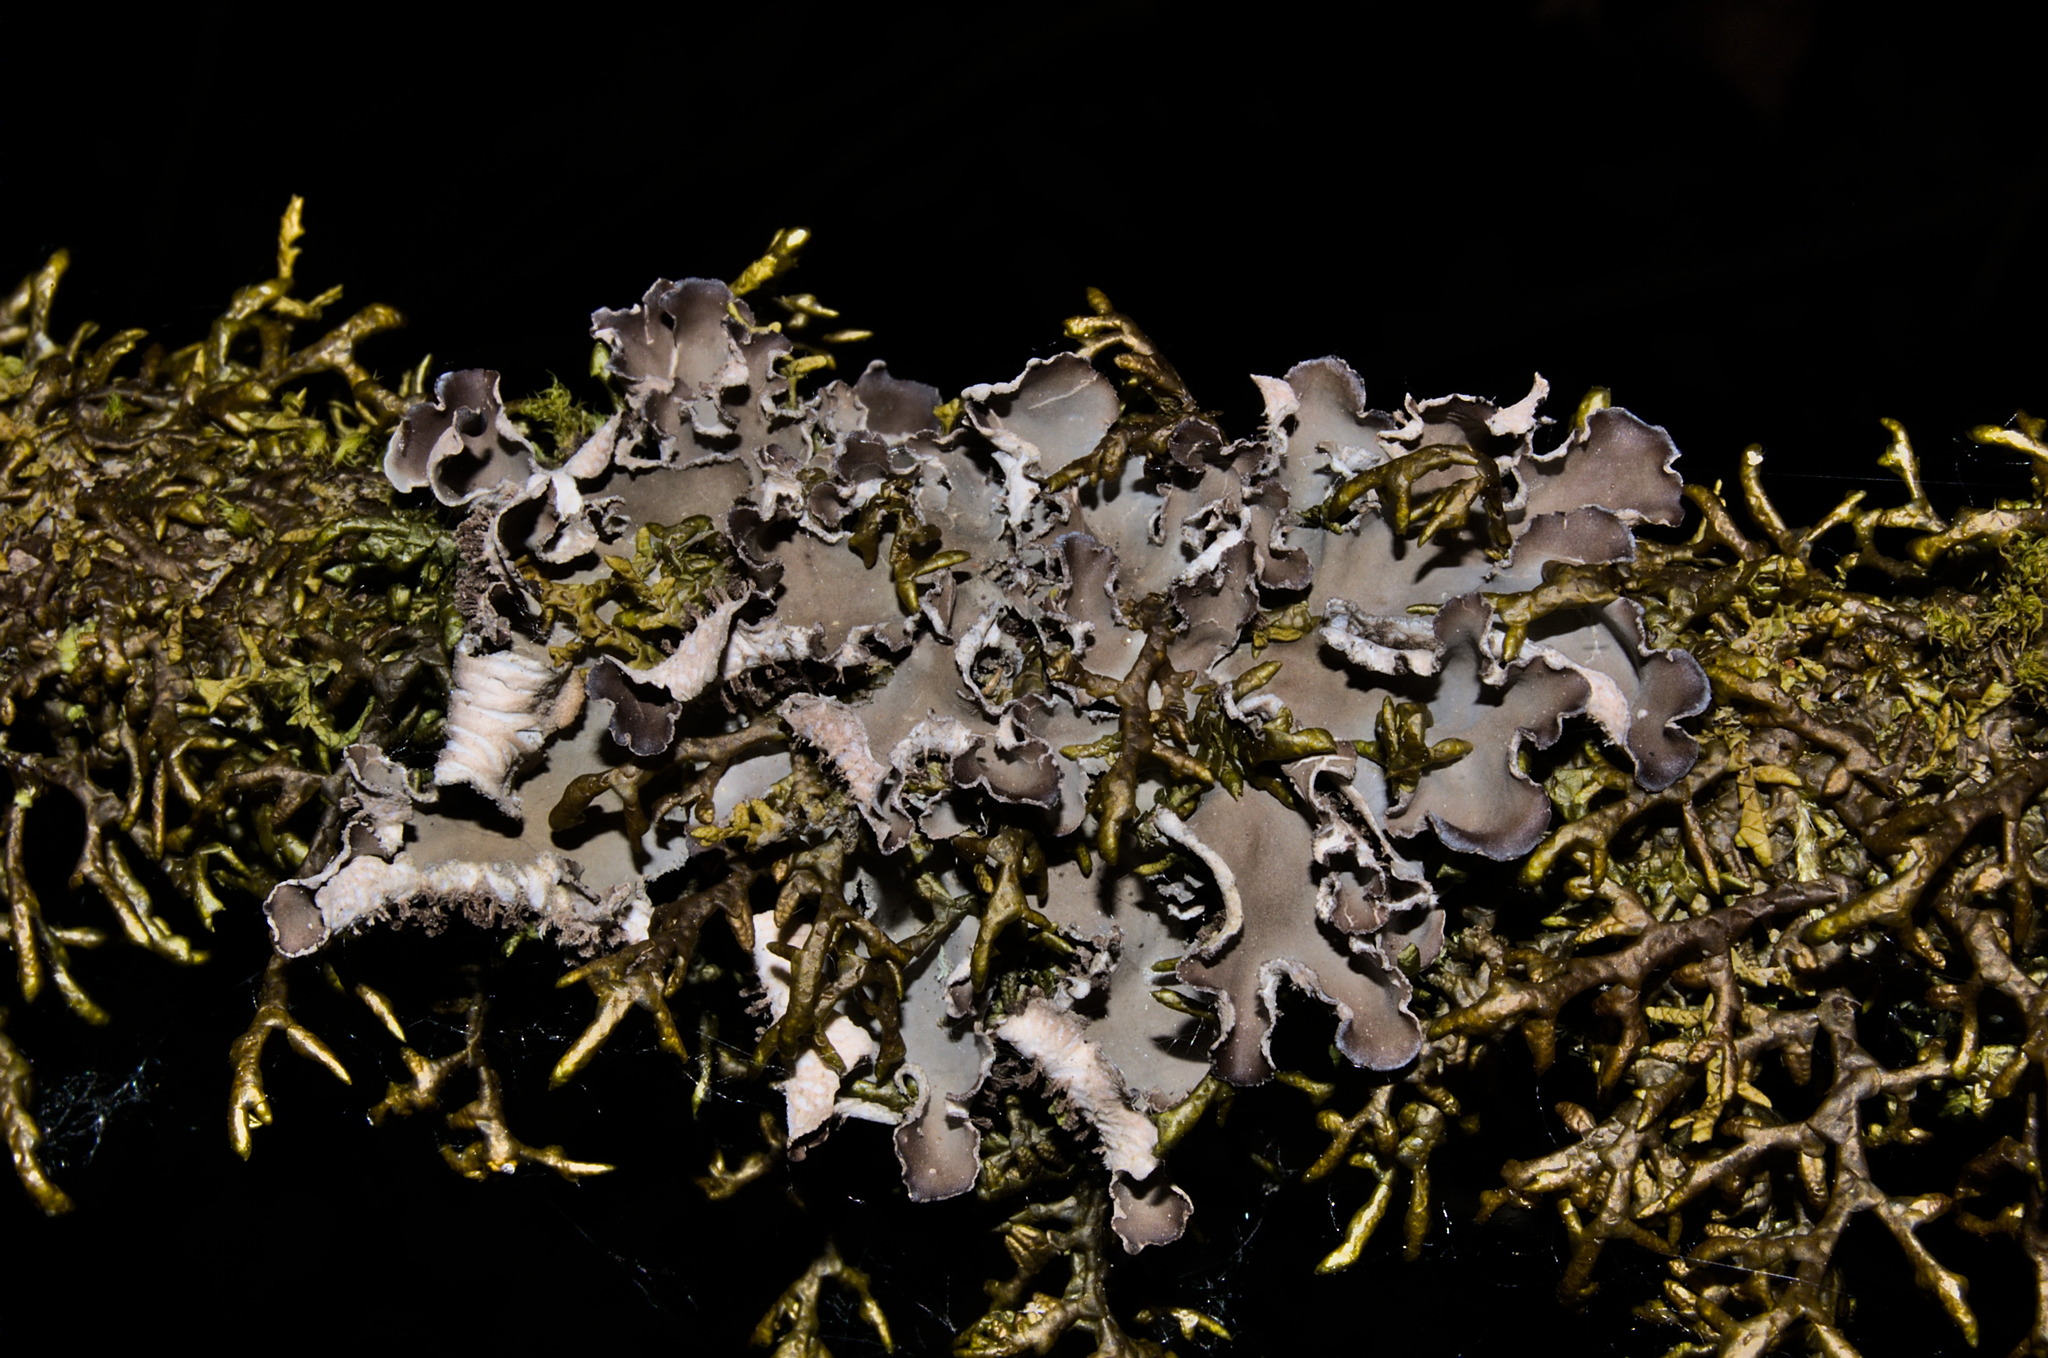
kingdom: Fungi
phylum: Ascomycota
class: Lecanoromycetes
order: Peltigerales
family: Peltigeraceae
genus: Peltigera
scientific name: Peltigera collina
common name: Gritty tree pelt lichen
